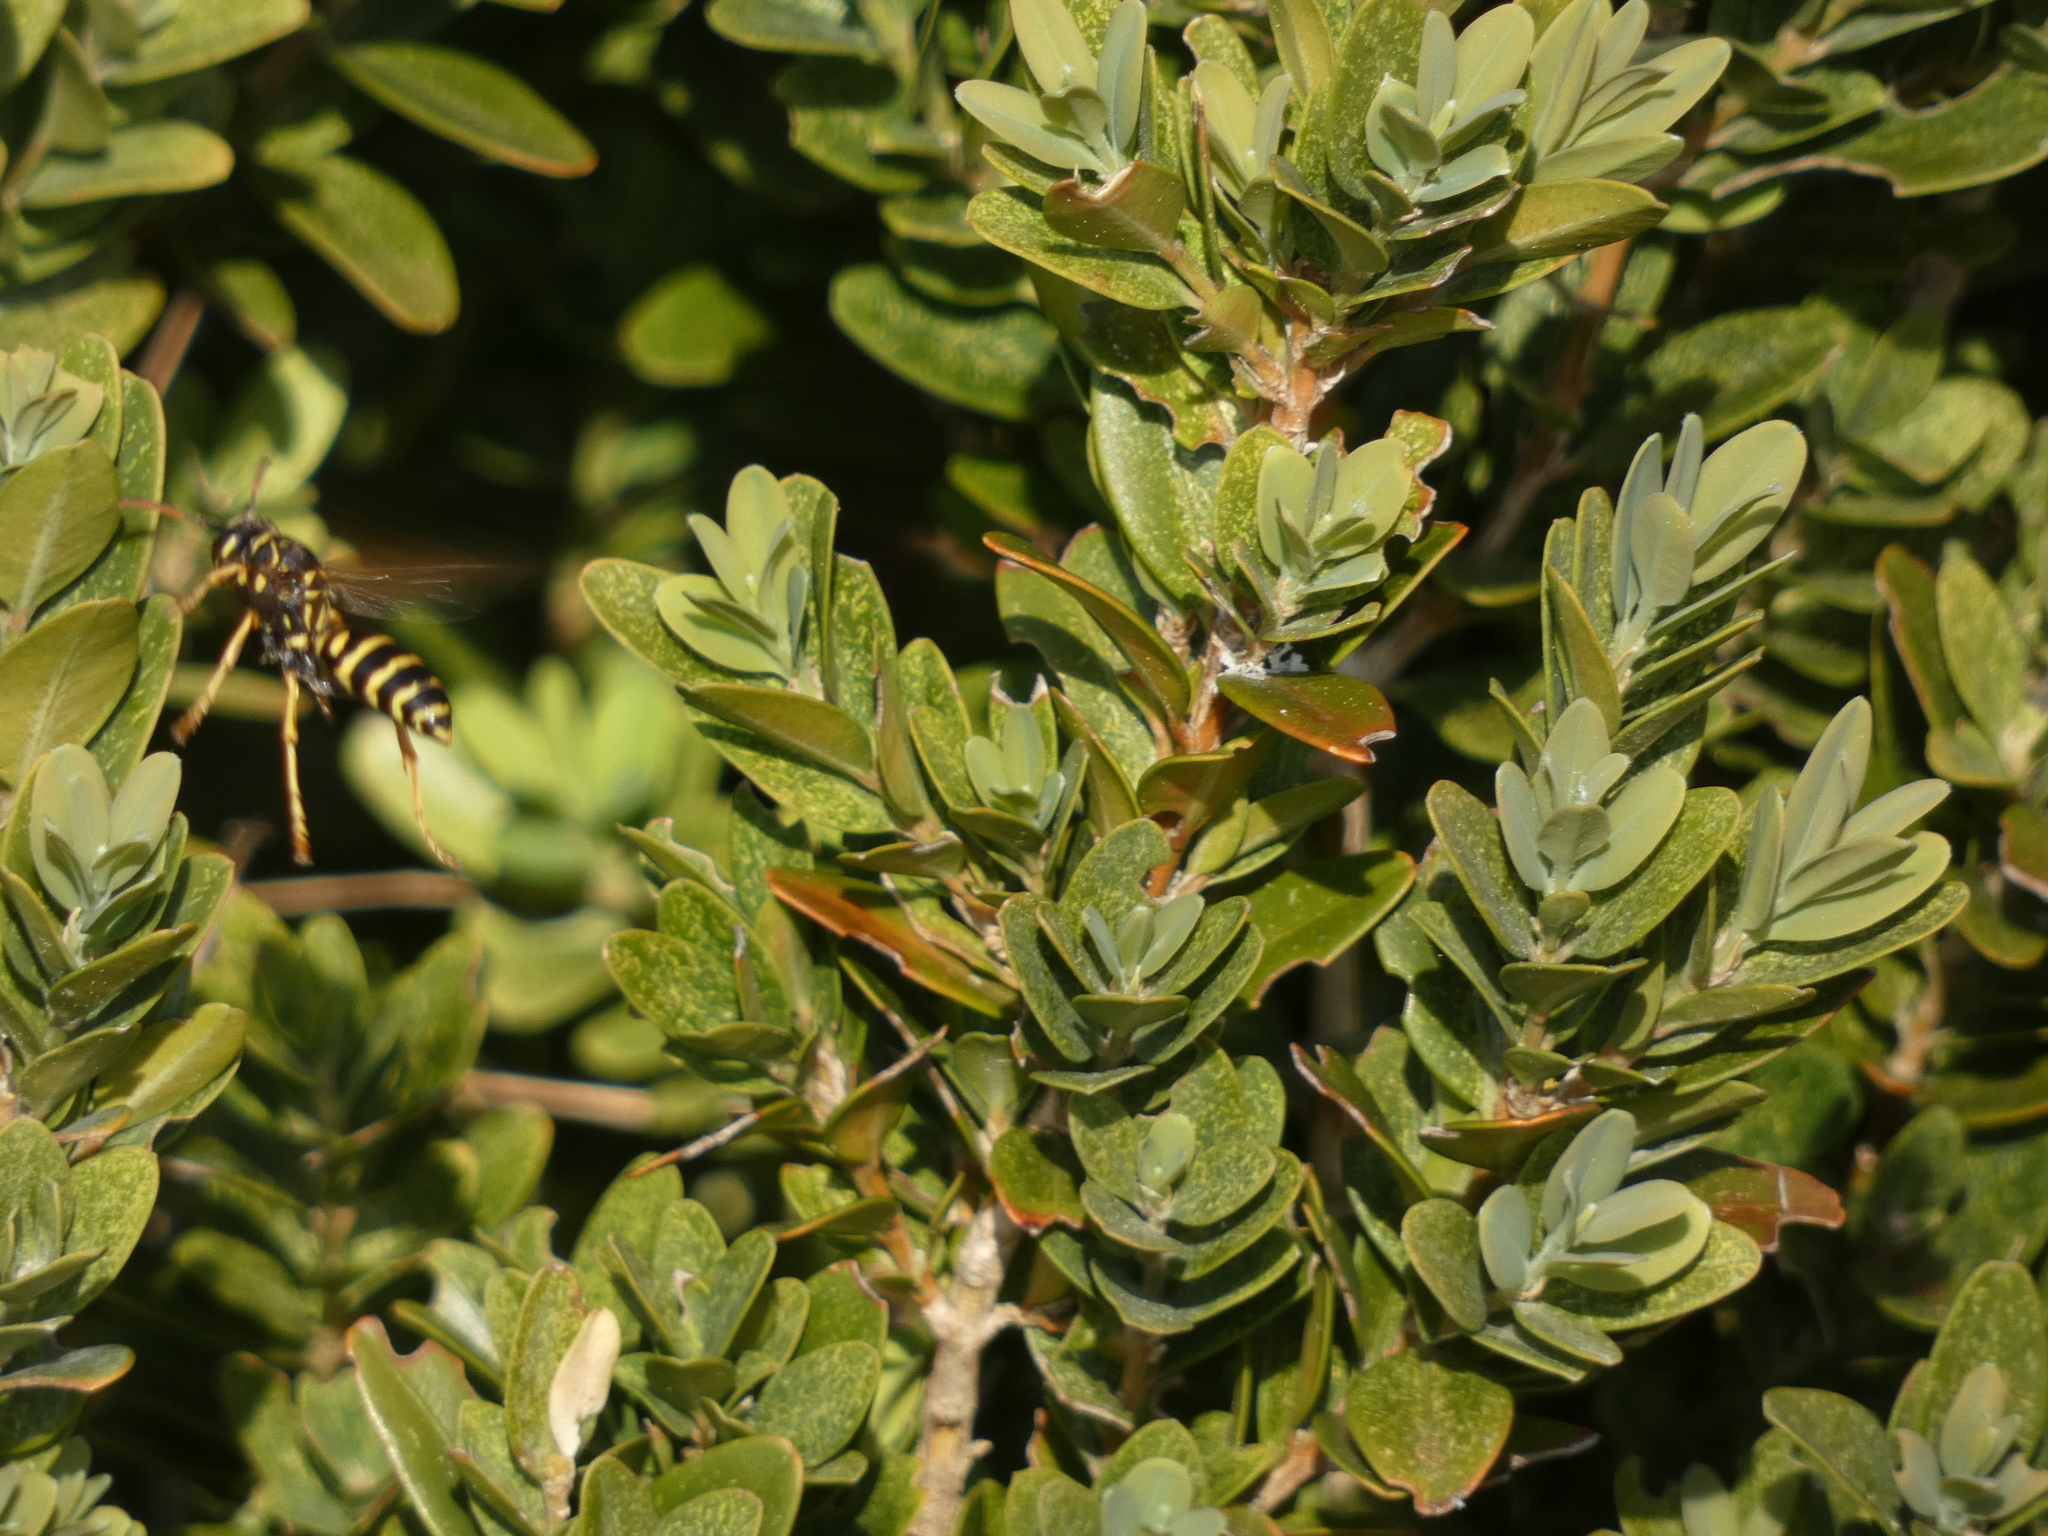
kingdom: Animalia
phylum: Arthropoda
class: Insecta
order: Hymenoptera
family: Eumenidae
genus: Polistes
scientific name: Polistes nimpha
